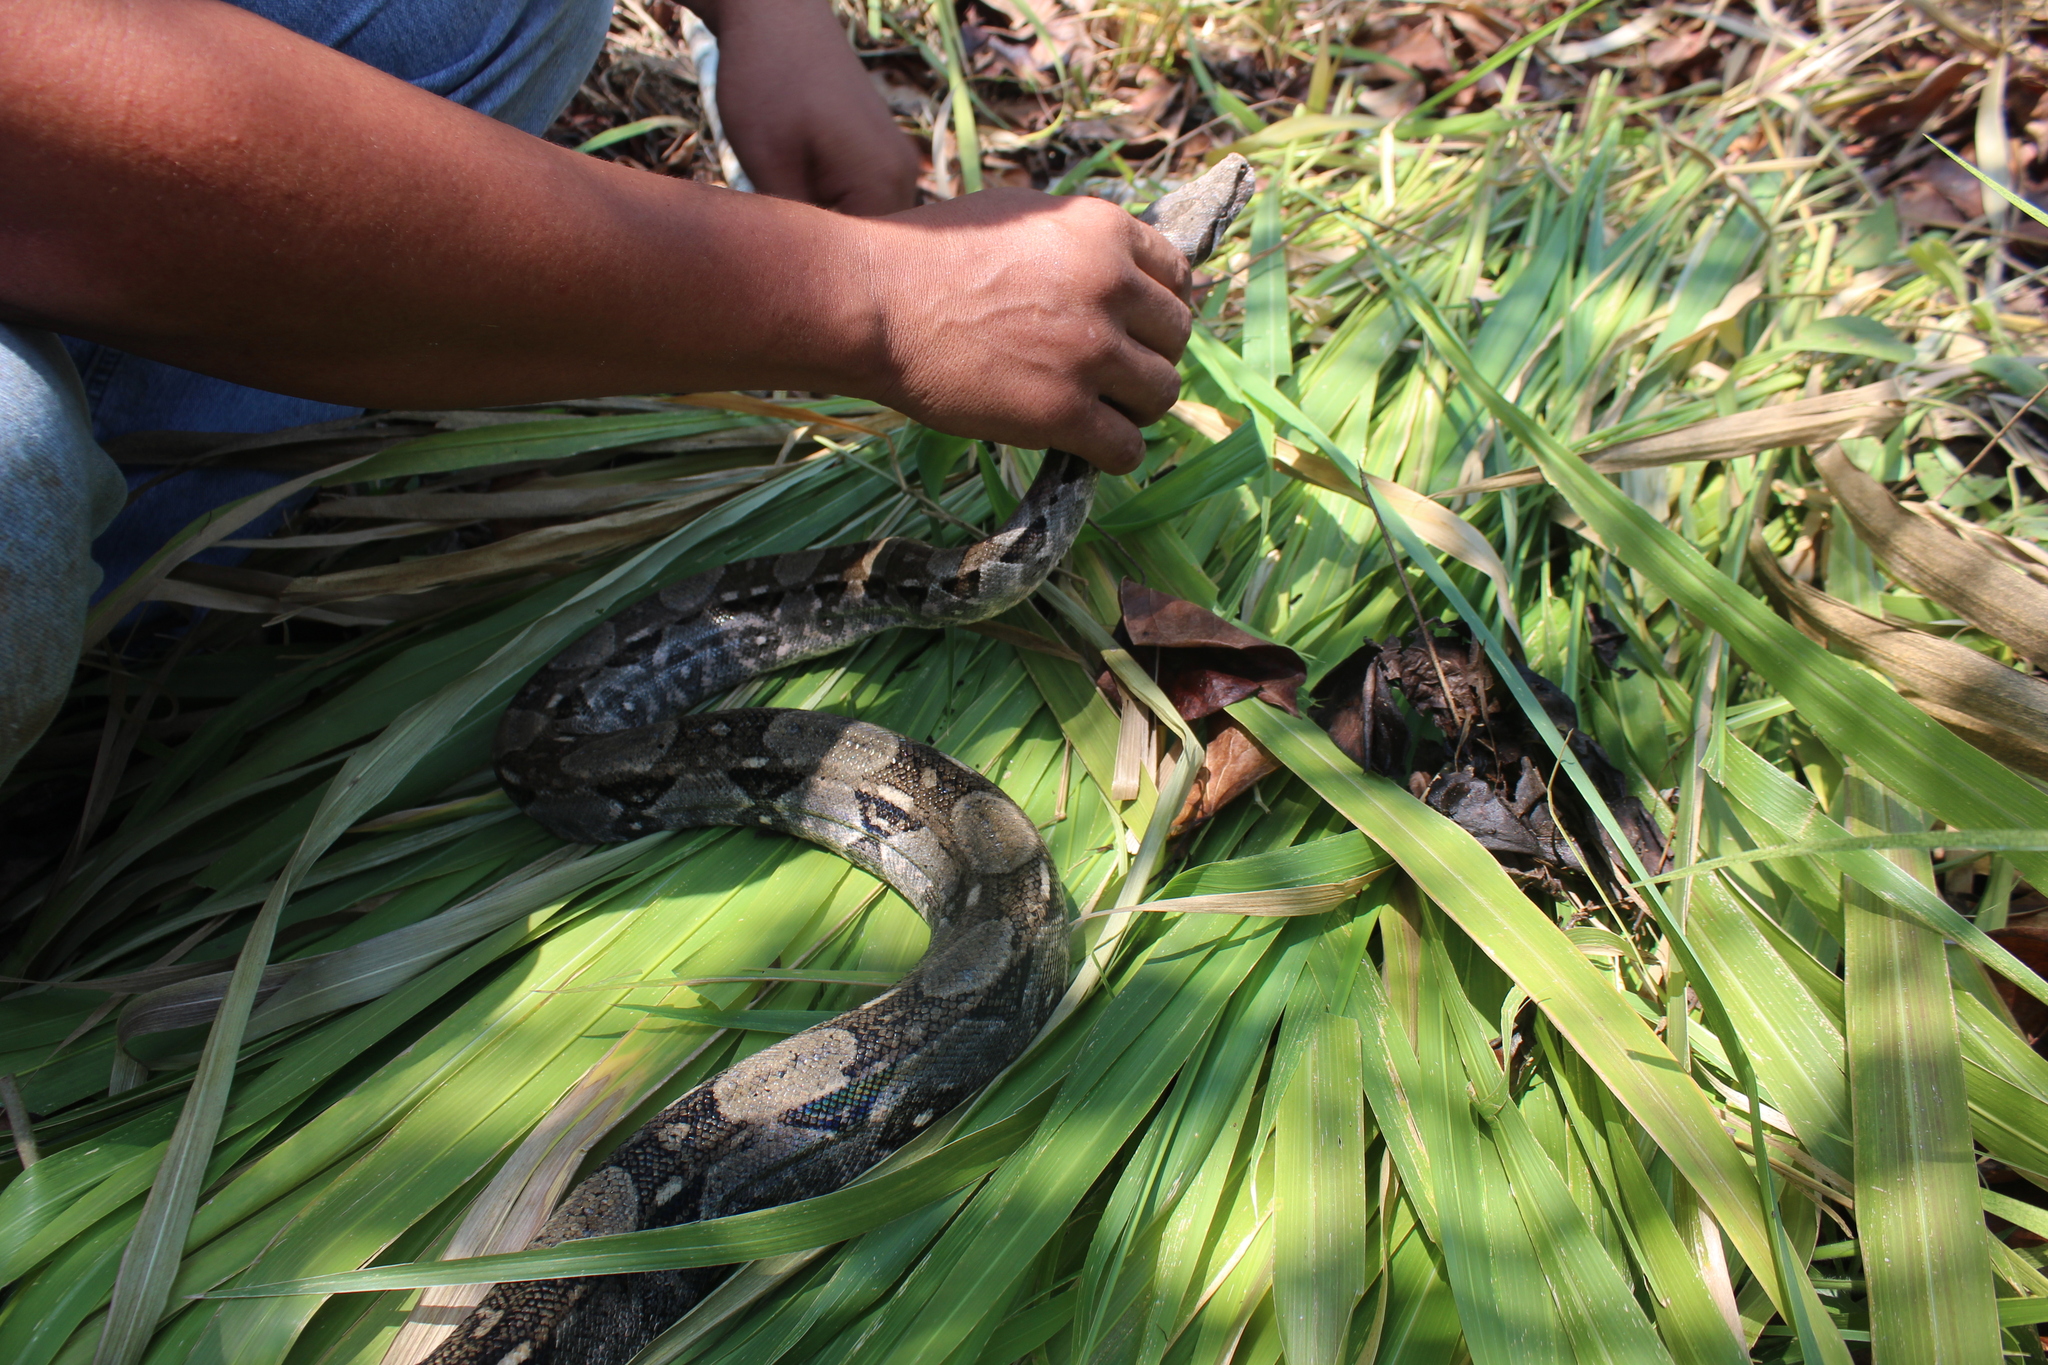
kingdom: Animalia
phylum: Chordata
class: Squamata
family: Boidae
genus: Boa
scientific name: Boa imperator
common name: Central american boa
